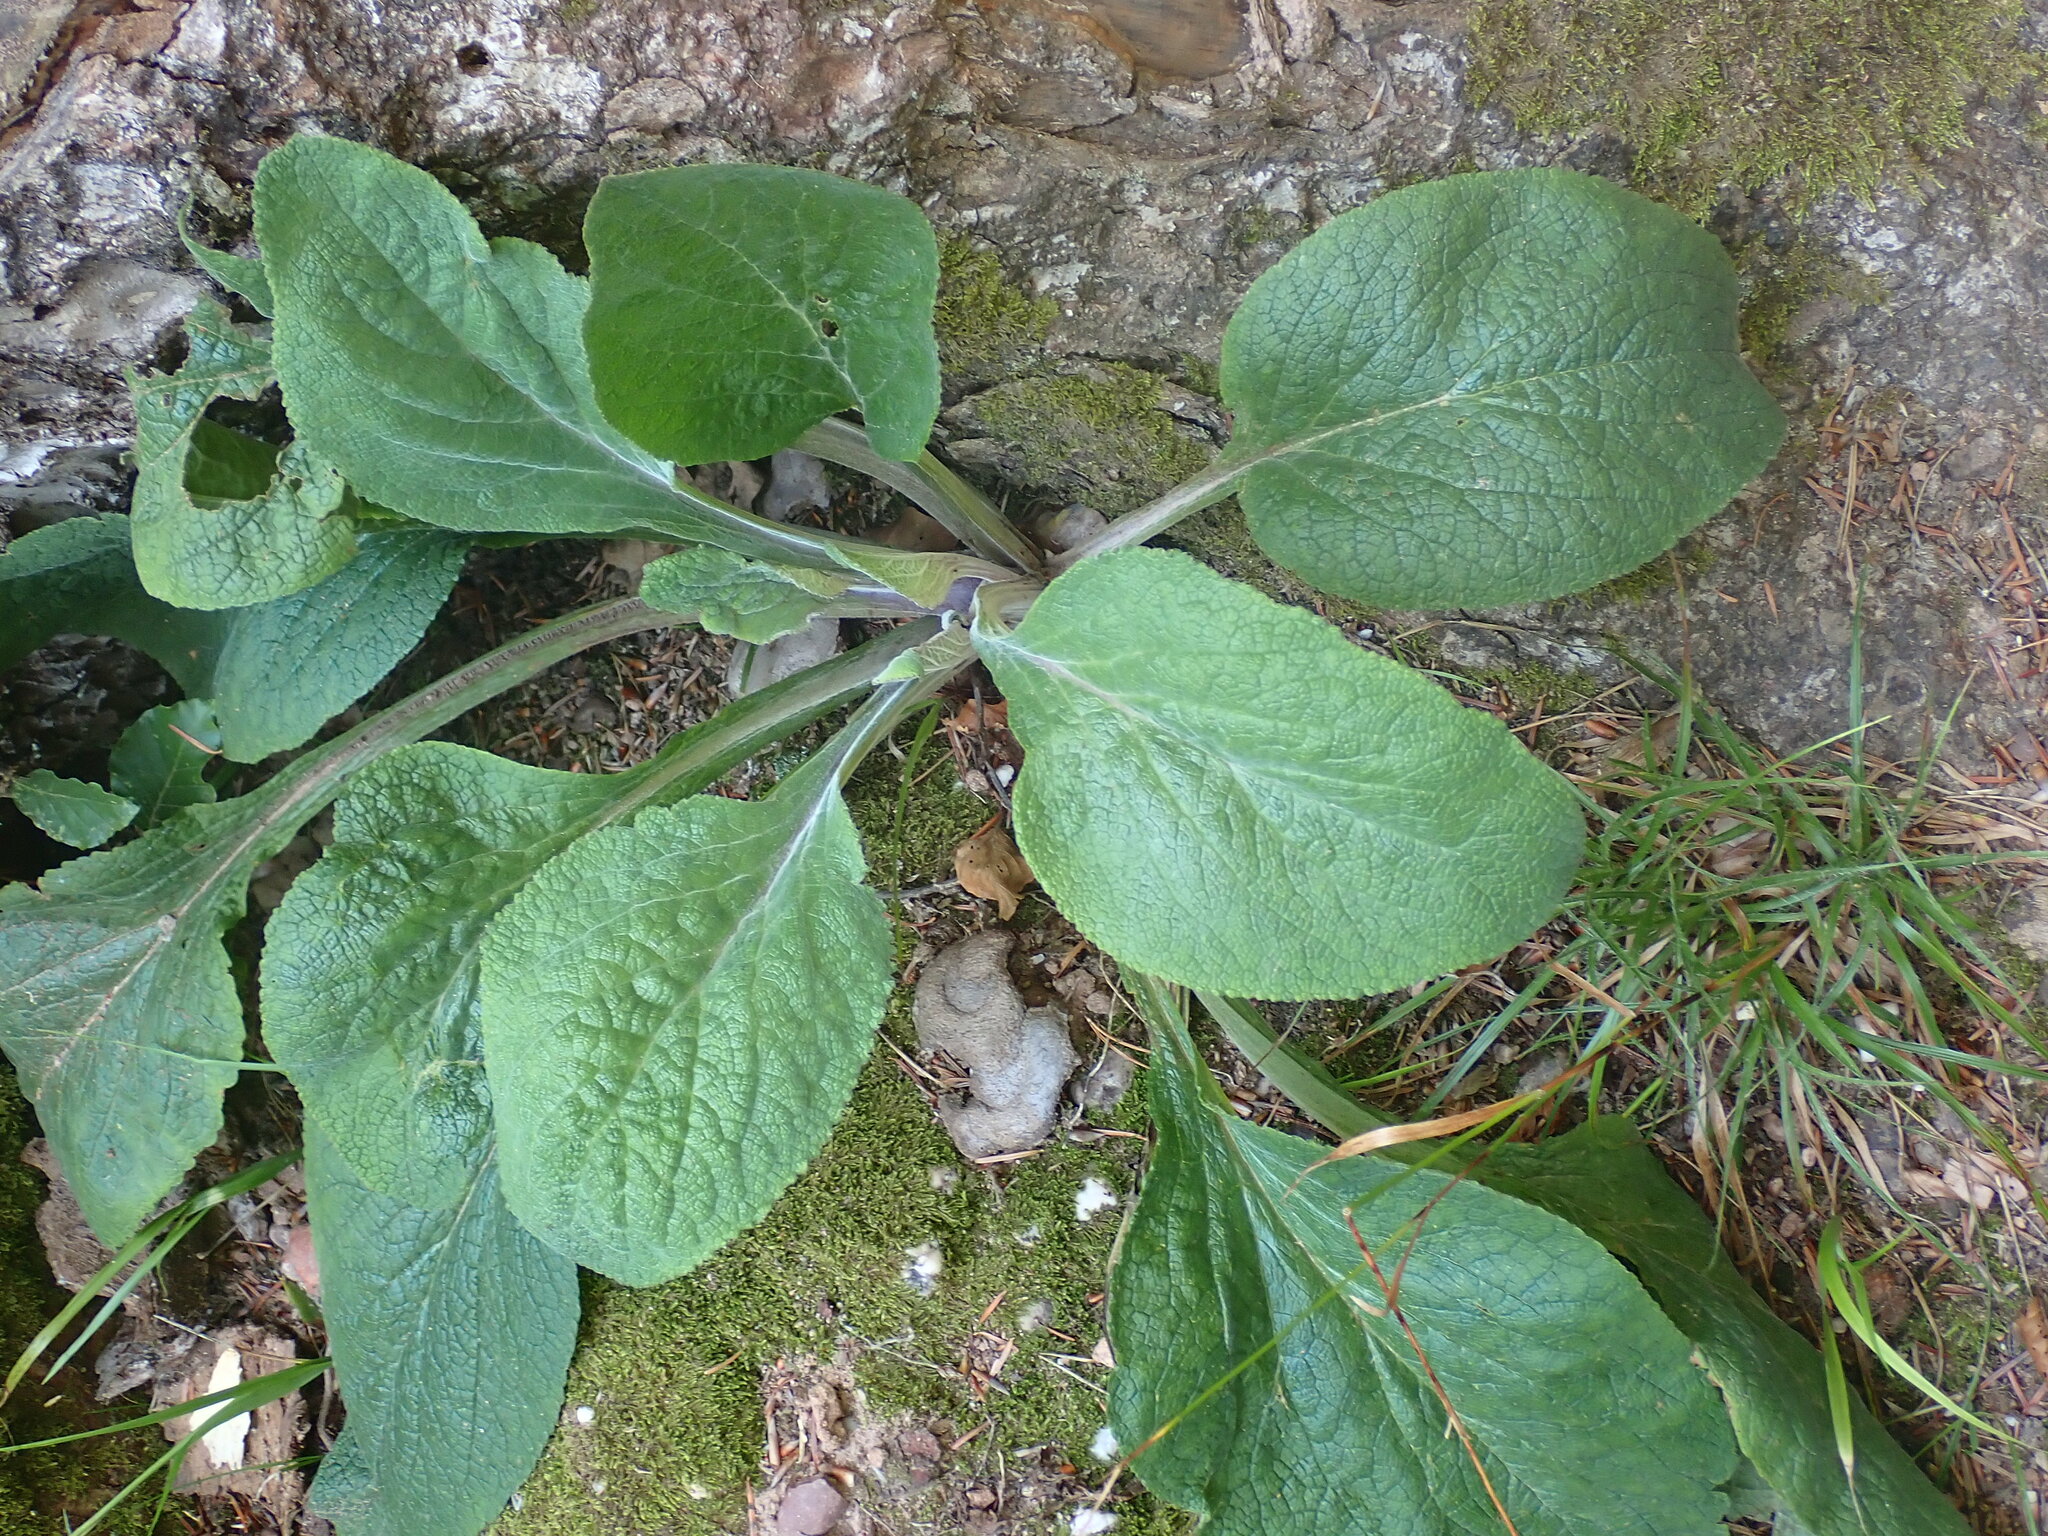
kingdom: Plantae
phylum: Tracheophyta
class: Magnoliopsida
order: Lamiales
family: Plantaginaceae
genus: Digitalis
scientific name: Digitalis purpurea
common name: Foxglove
